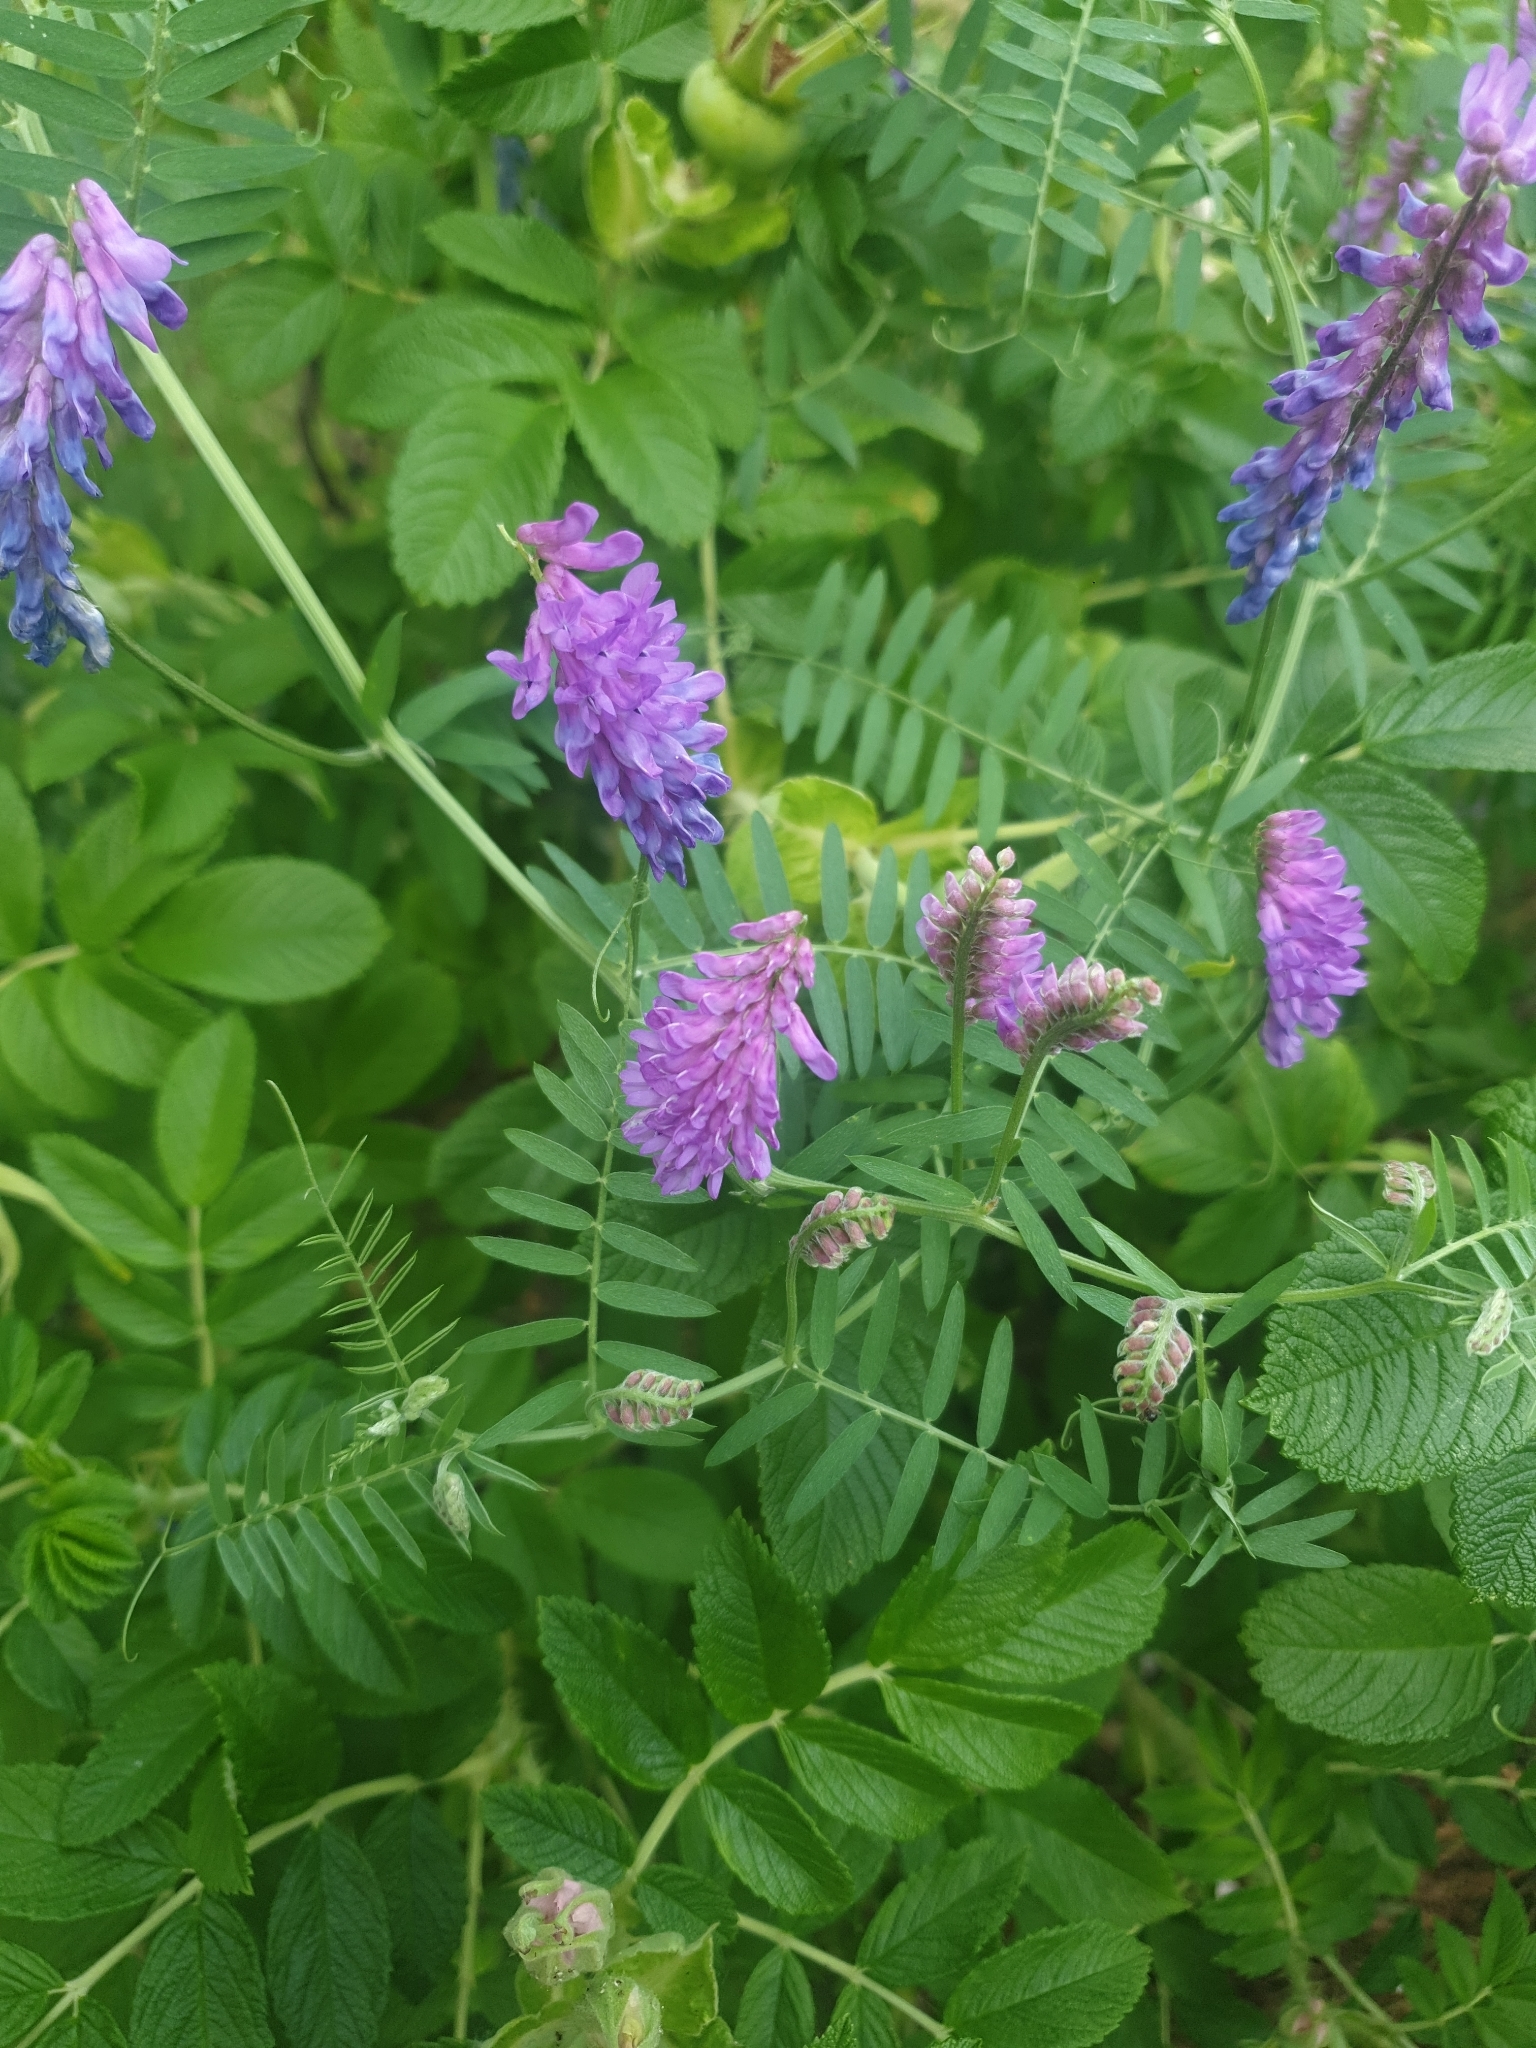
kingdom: Plantae
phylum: Tracheophyta
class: Magnoliopsida
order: Fabales
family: Fabaceae
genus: Vicia
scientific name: Vicia cracca
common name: Bird vetch
